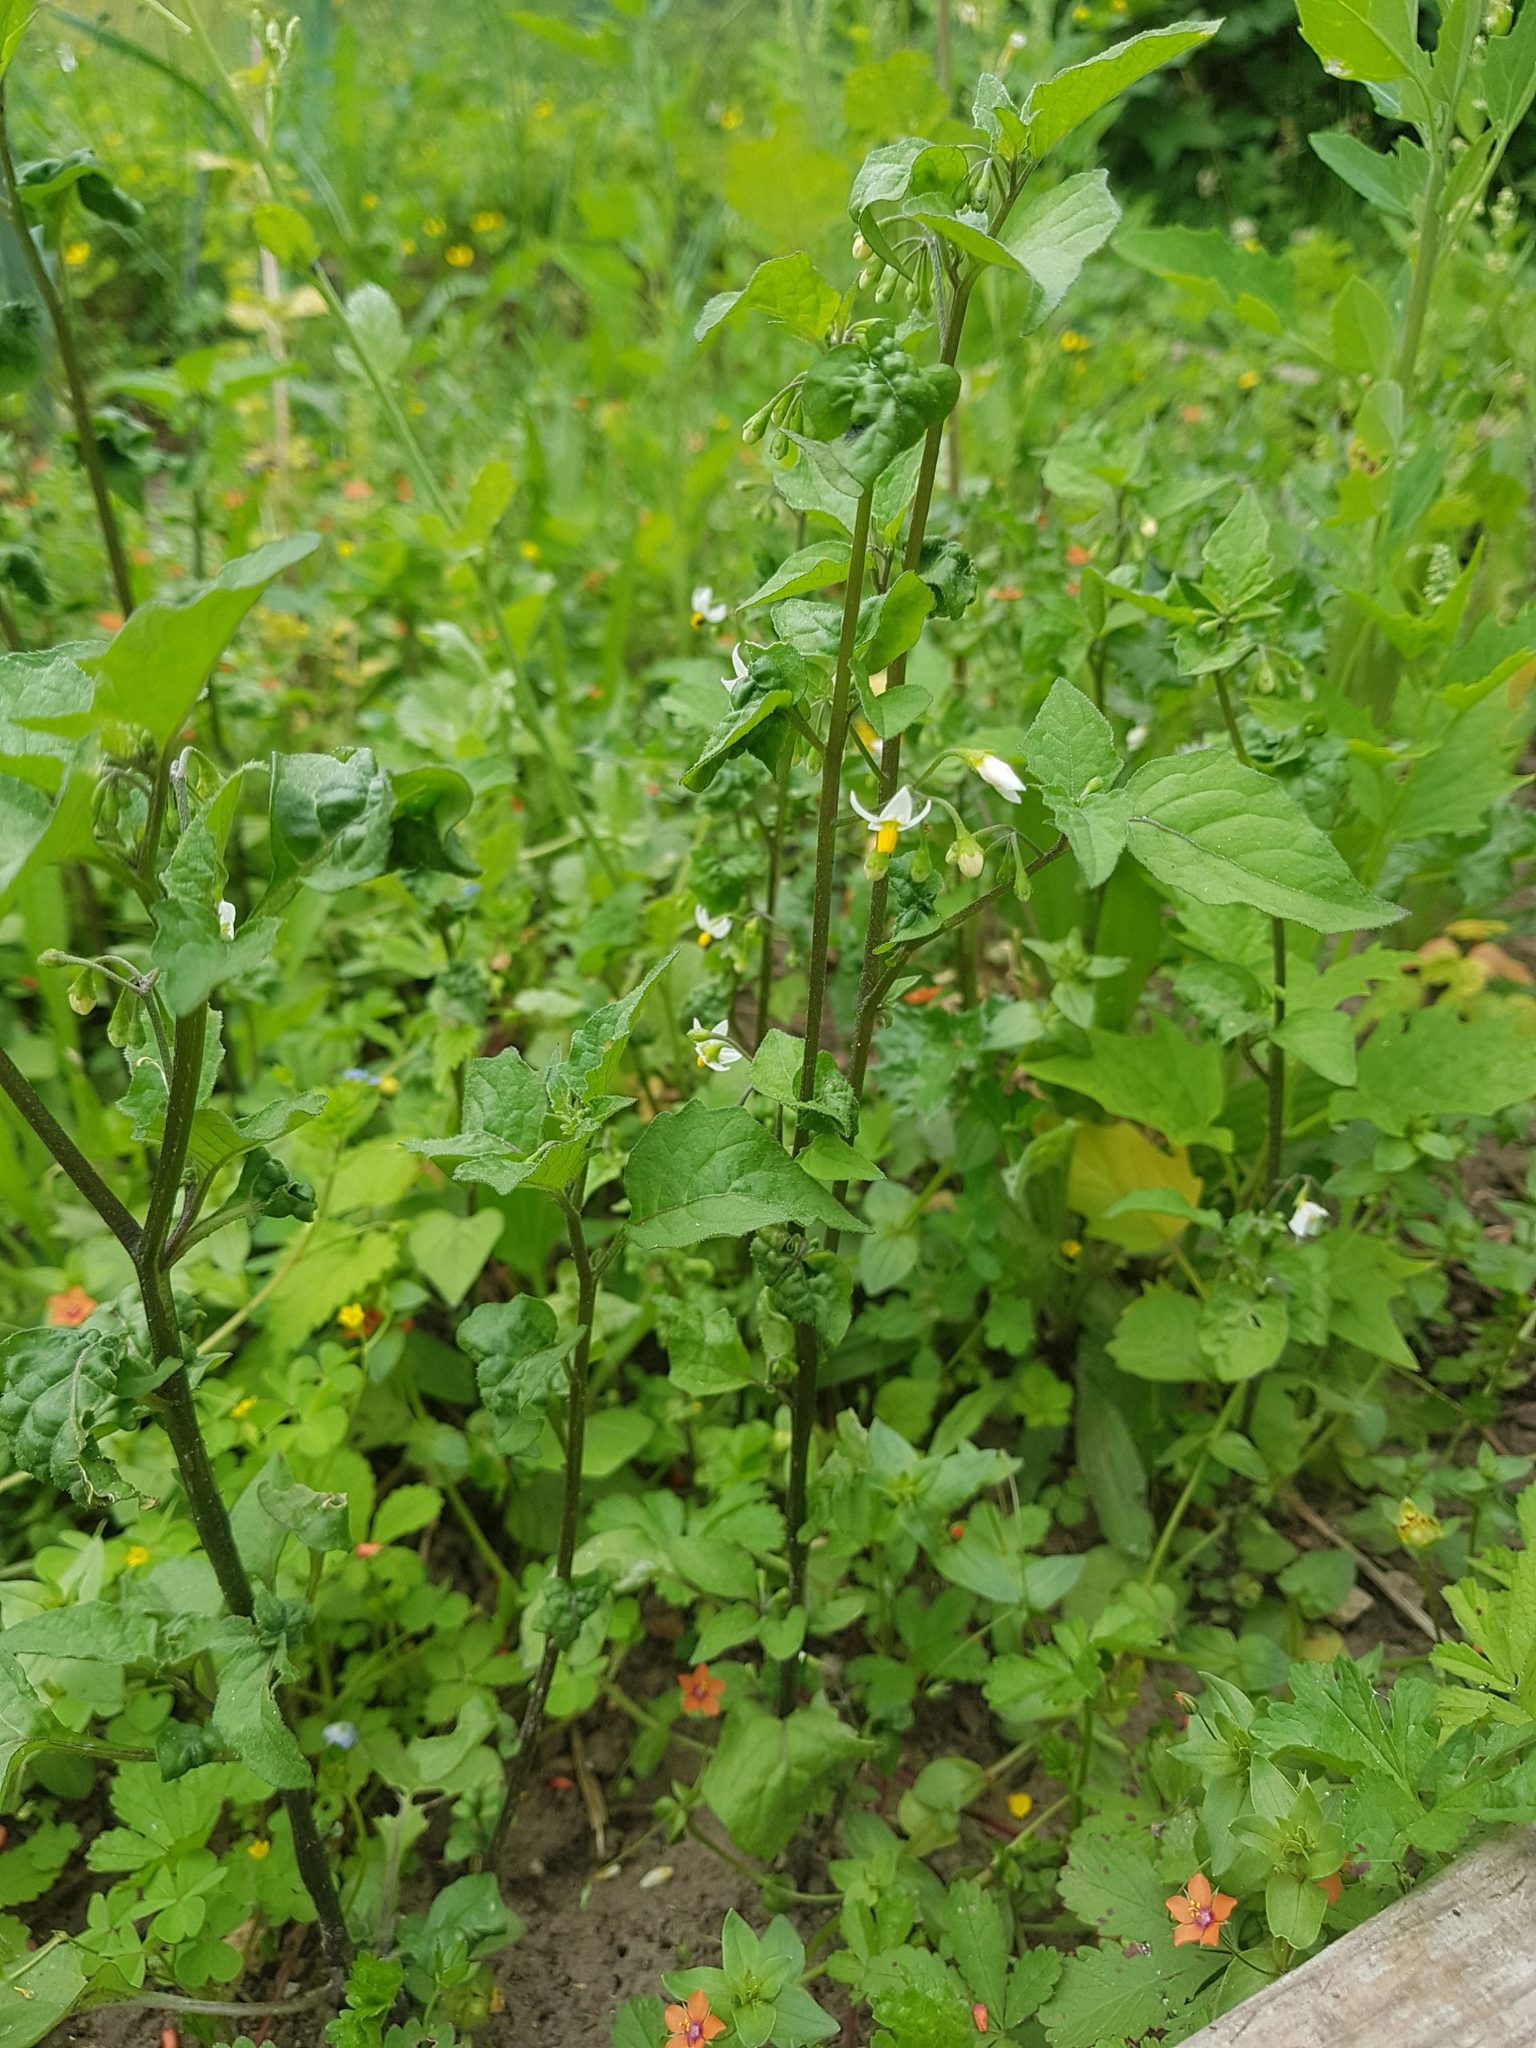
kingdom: Plantae
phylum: Tracheophyta
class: Magnoliopsida
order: Solanales
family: Solanaceae
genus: Solanum
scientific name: Solanum nigrum
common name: Black nightshade
